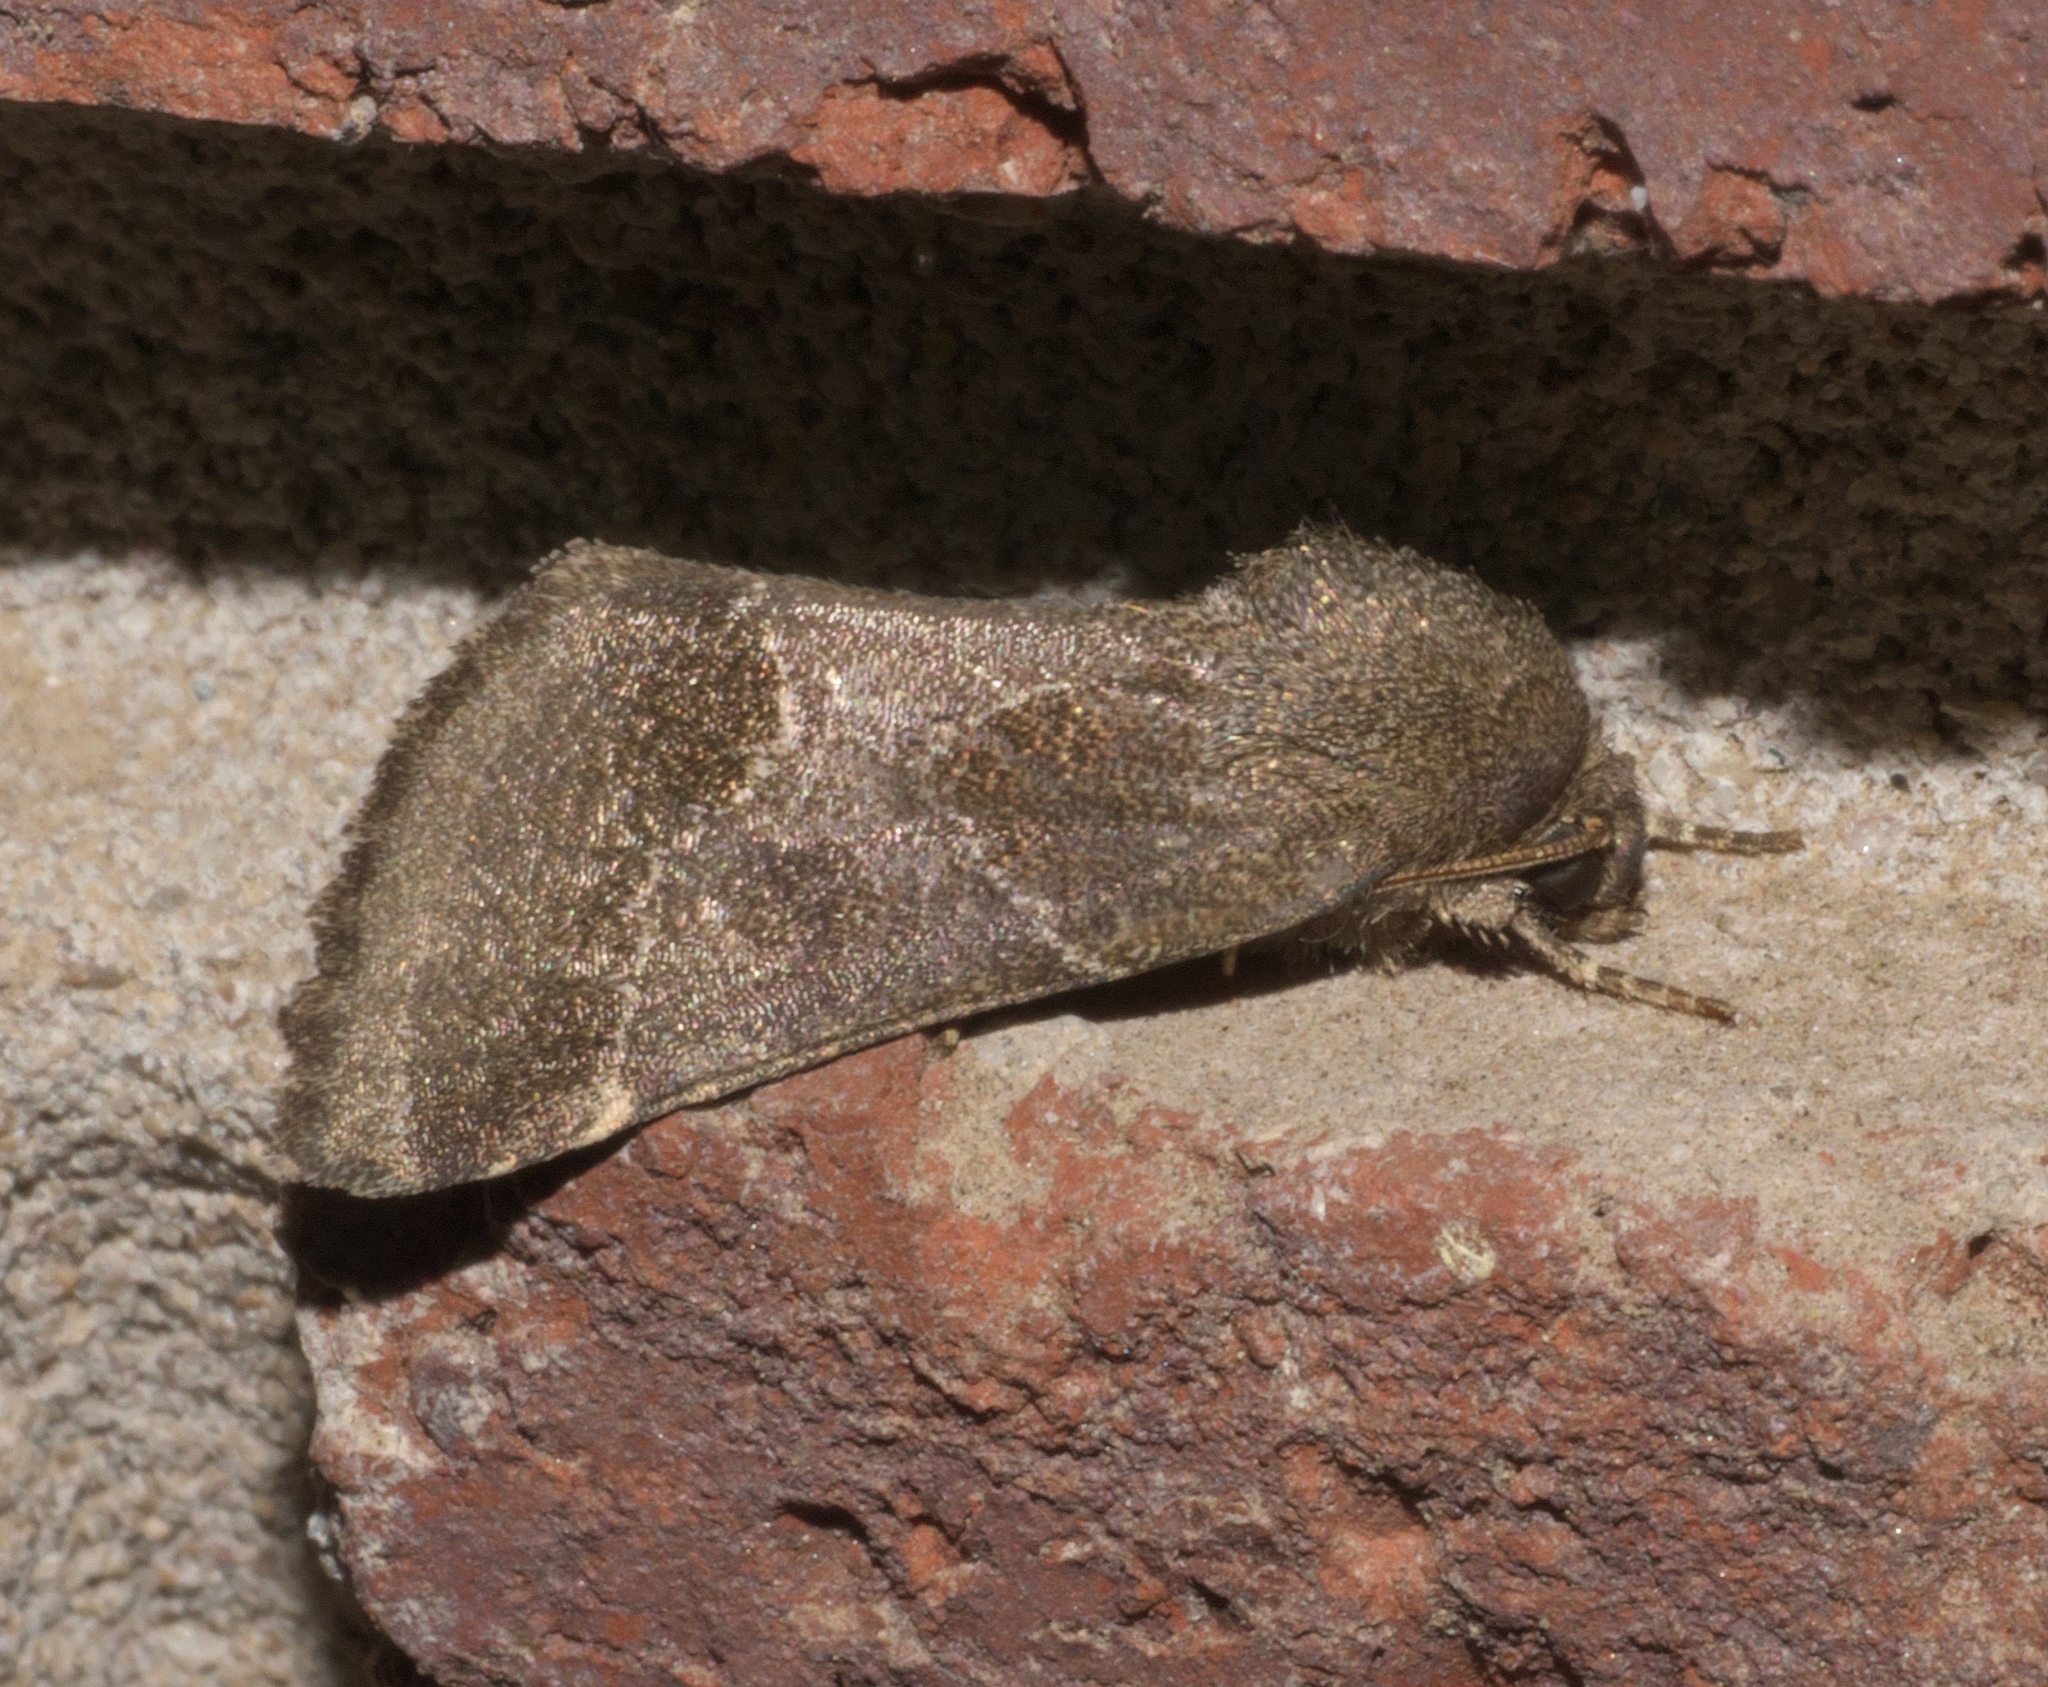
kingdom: Animalia
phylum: Arthropoda
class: Insecta
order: Lepidoptera
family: Noctuidae
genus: Schinia
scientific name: Schinia thoreaui
